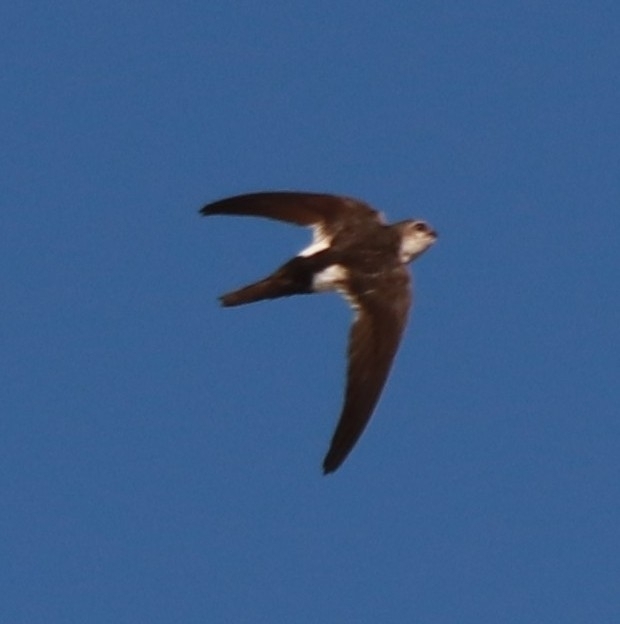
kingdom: Animalia
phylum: Chordata
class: Aves
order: Apodiformes
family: Apodidae
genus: Aeronautes
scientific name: Aeronautes saxatalis
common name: White-throated swift
